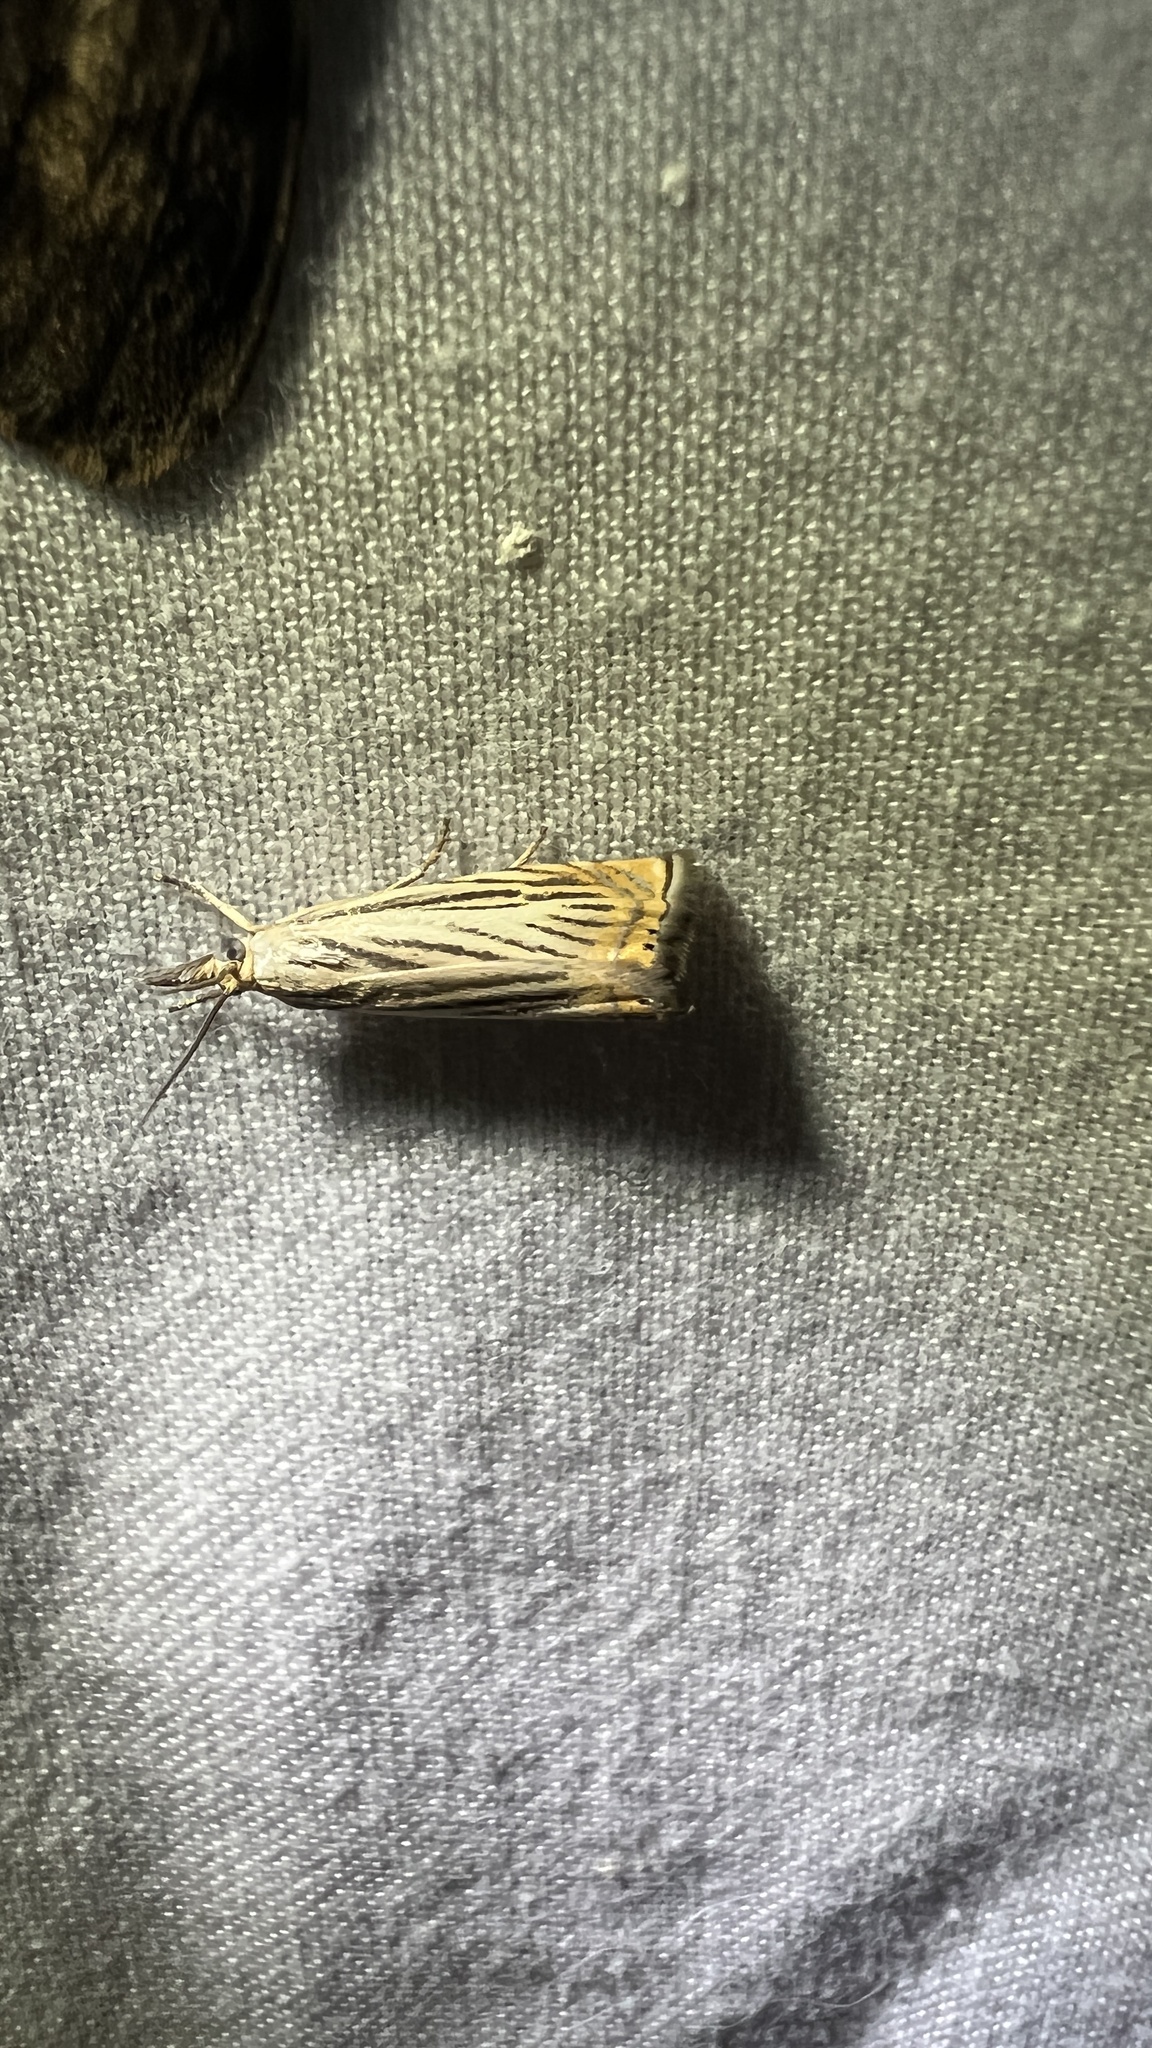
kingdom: Animalia
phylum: Arthropoda
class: Insecta
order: Lepidoptera
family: Crambidae
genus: Chrysoteuchia
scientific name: Chrysoteuchia topiarius
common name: Topiary grass-veneer
